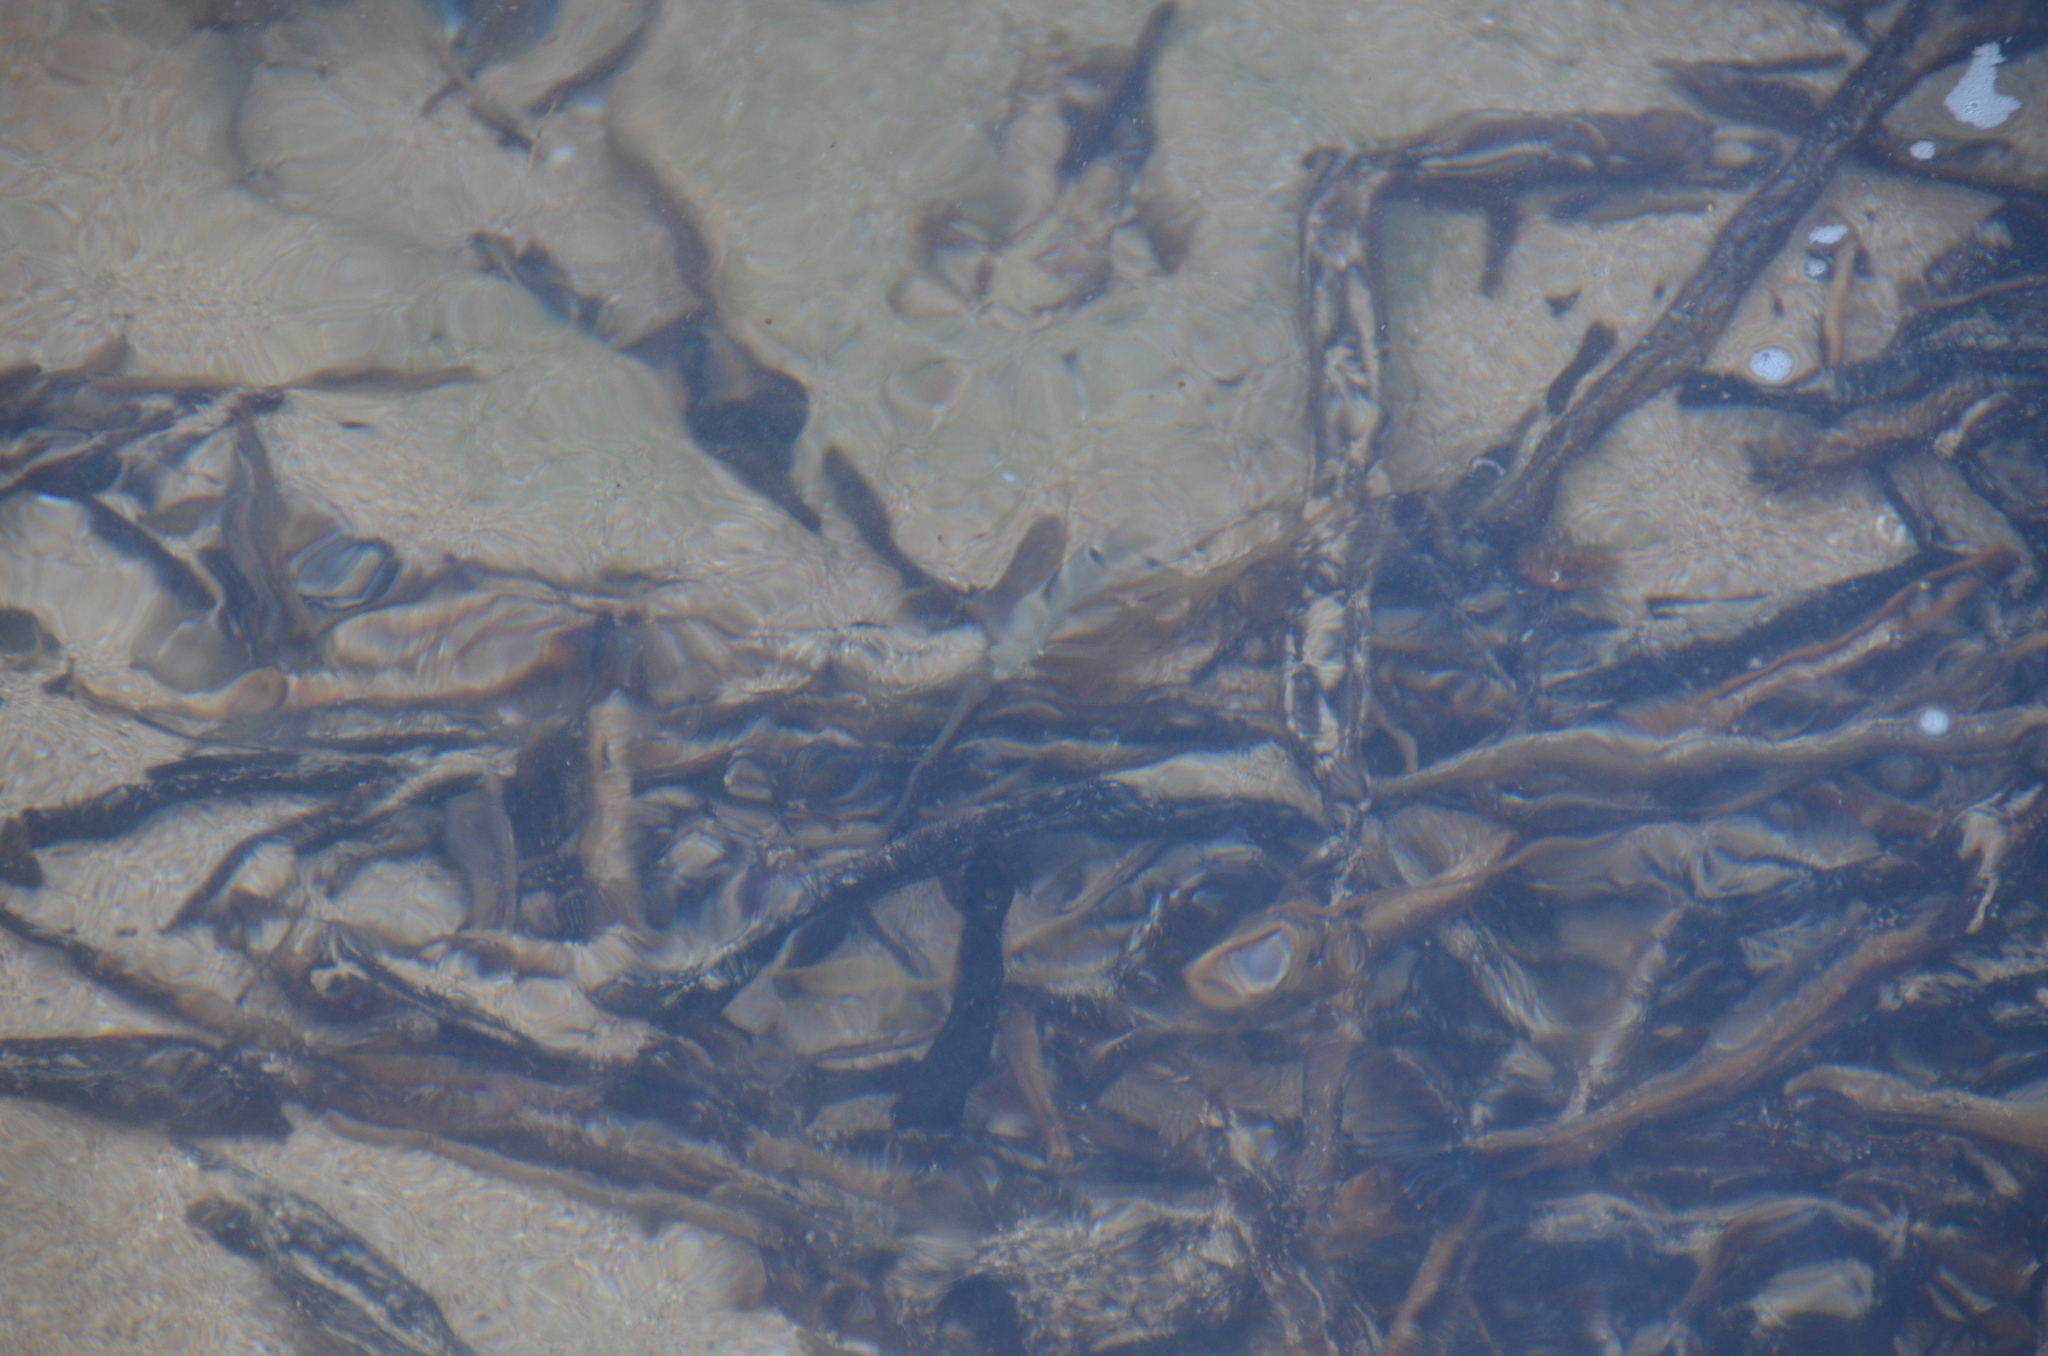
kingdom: Animalia
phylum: Chordata
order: Perciformes
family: Pomacentridae
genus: Abudefduf
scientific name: Abudefduf sordidus
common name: Blackspot sergeant
